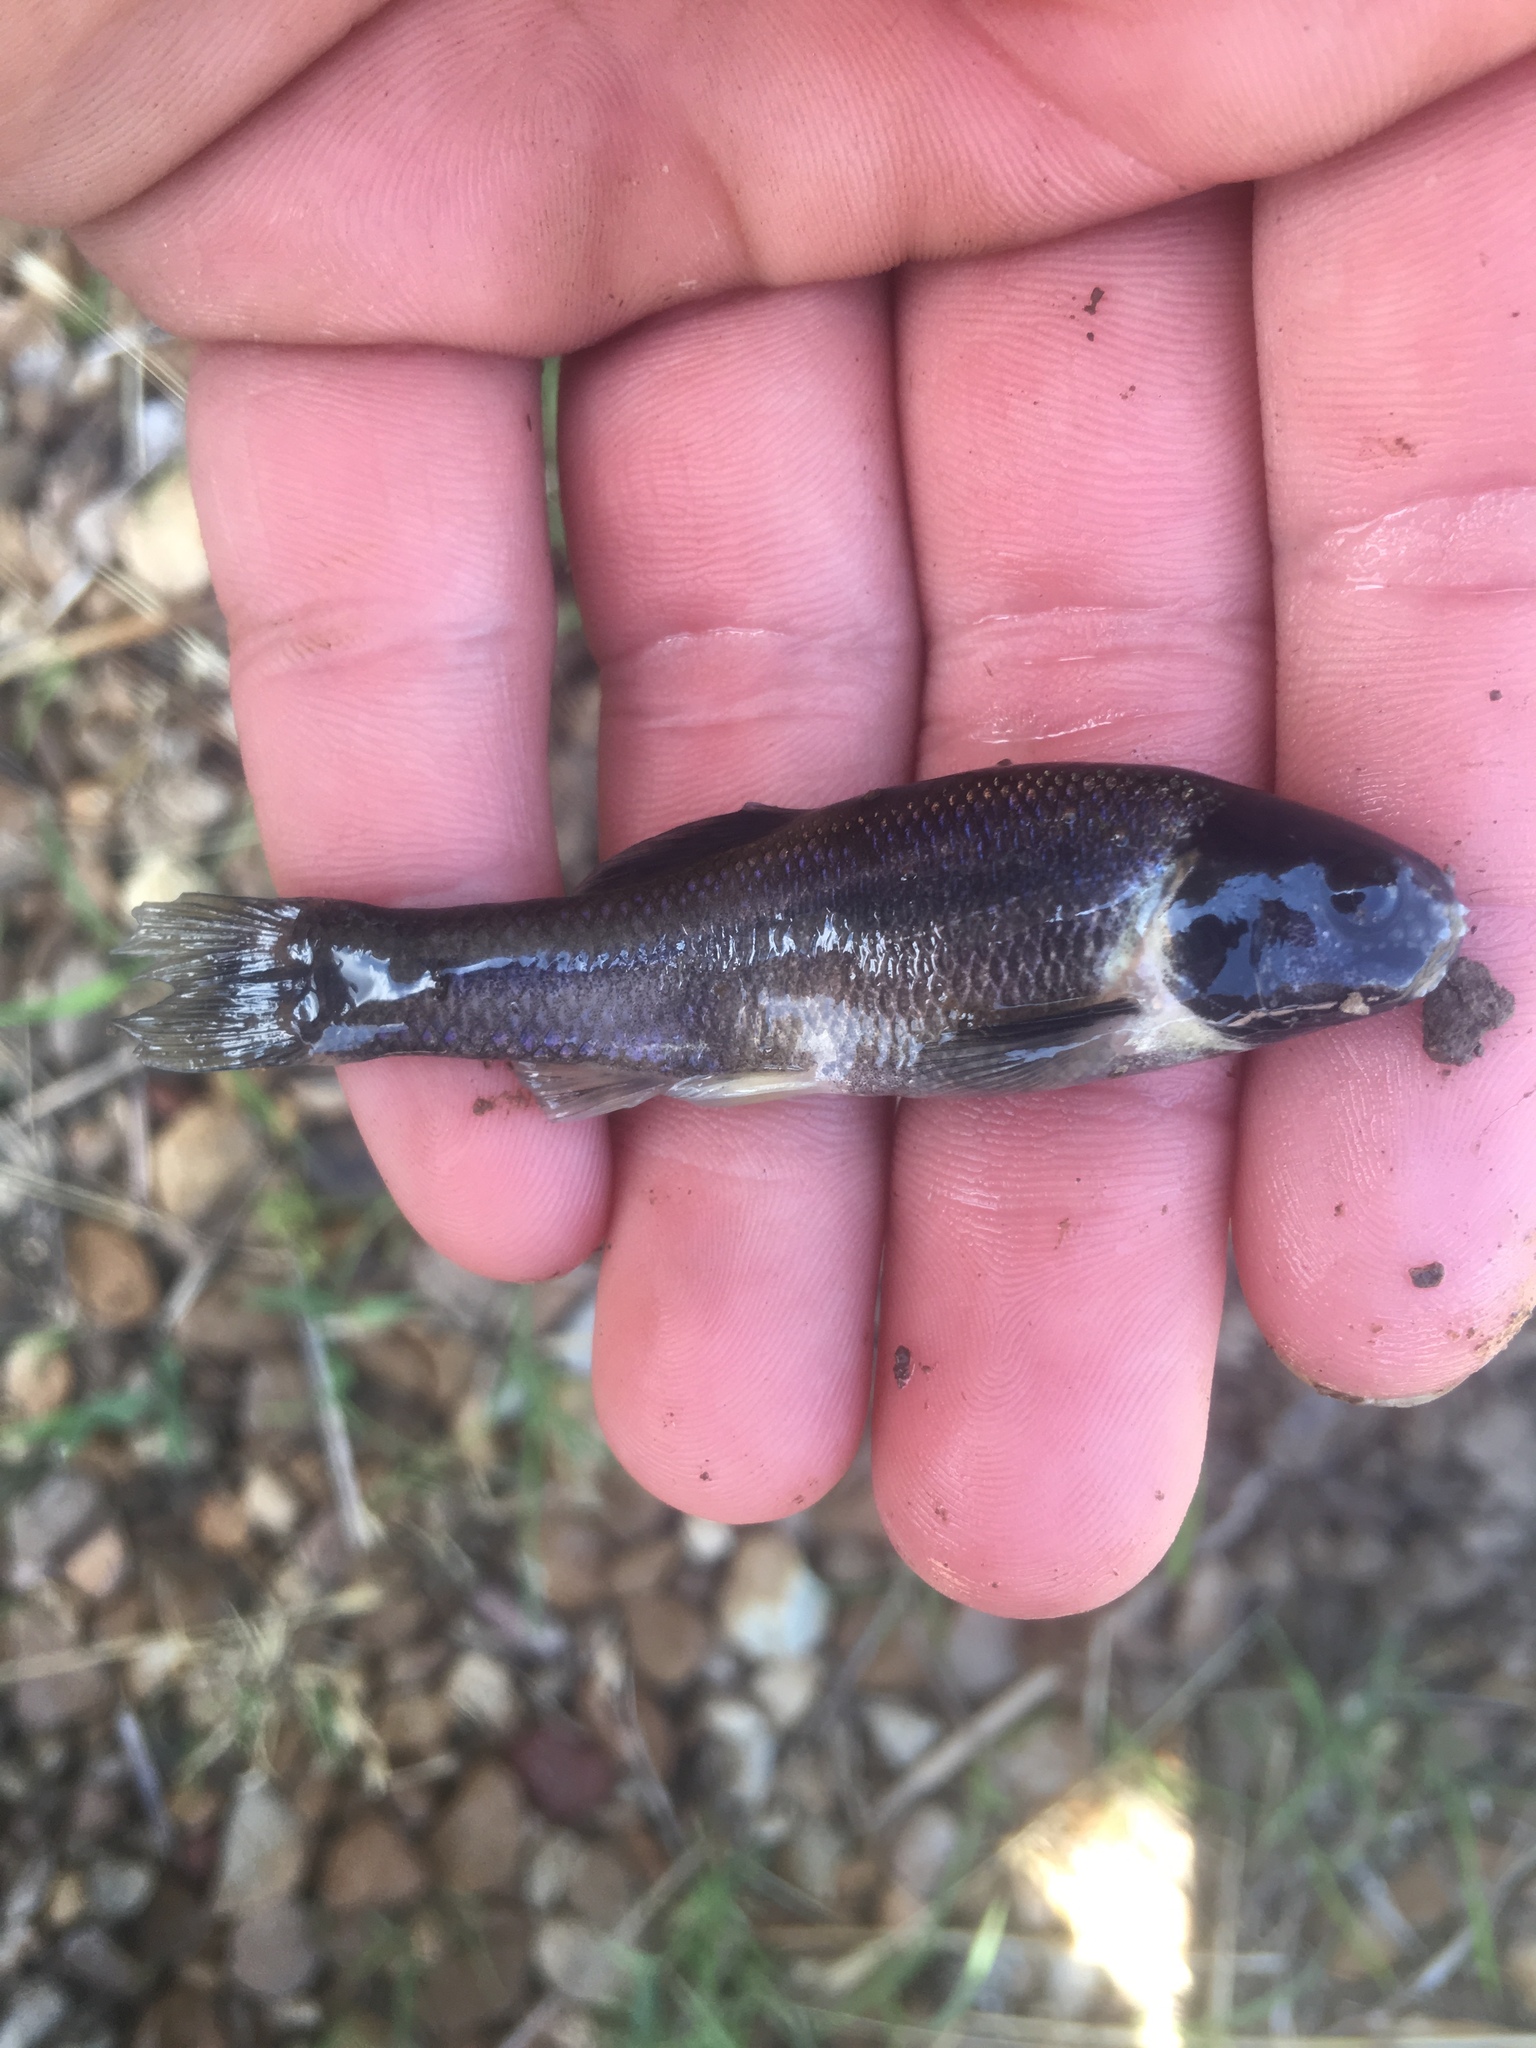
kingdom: Animalia
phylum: Chordata
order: Cypriniformes
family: Cyprinidae
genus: Pimephales
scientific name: Pimephales promelas
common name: Fathead minnow
